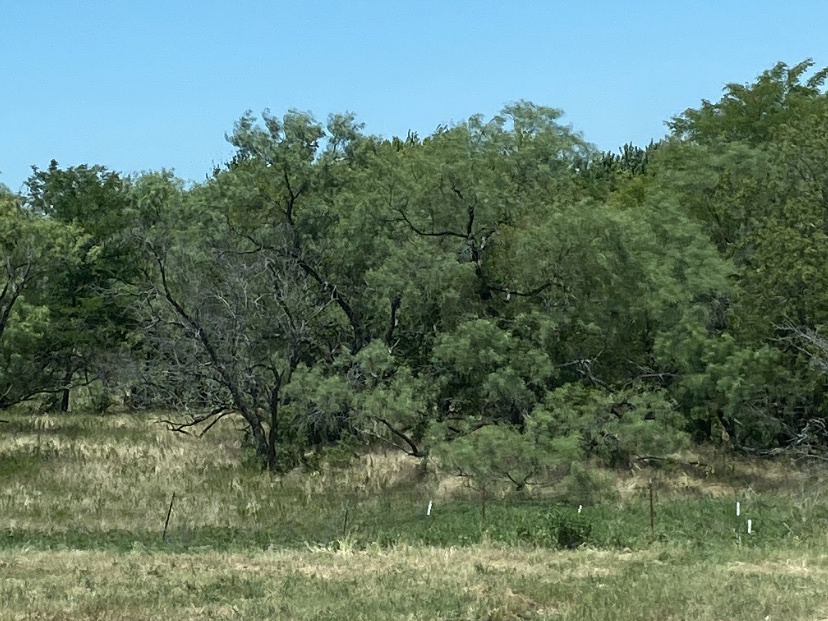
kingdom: Plantae
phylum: Tracheophyta
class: Magnoliopsida
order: Fabales
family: Fabaceae
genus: Prosopis
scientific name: Prosopis glandulosa
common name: Honey mesquite
